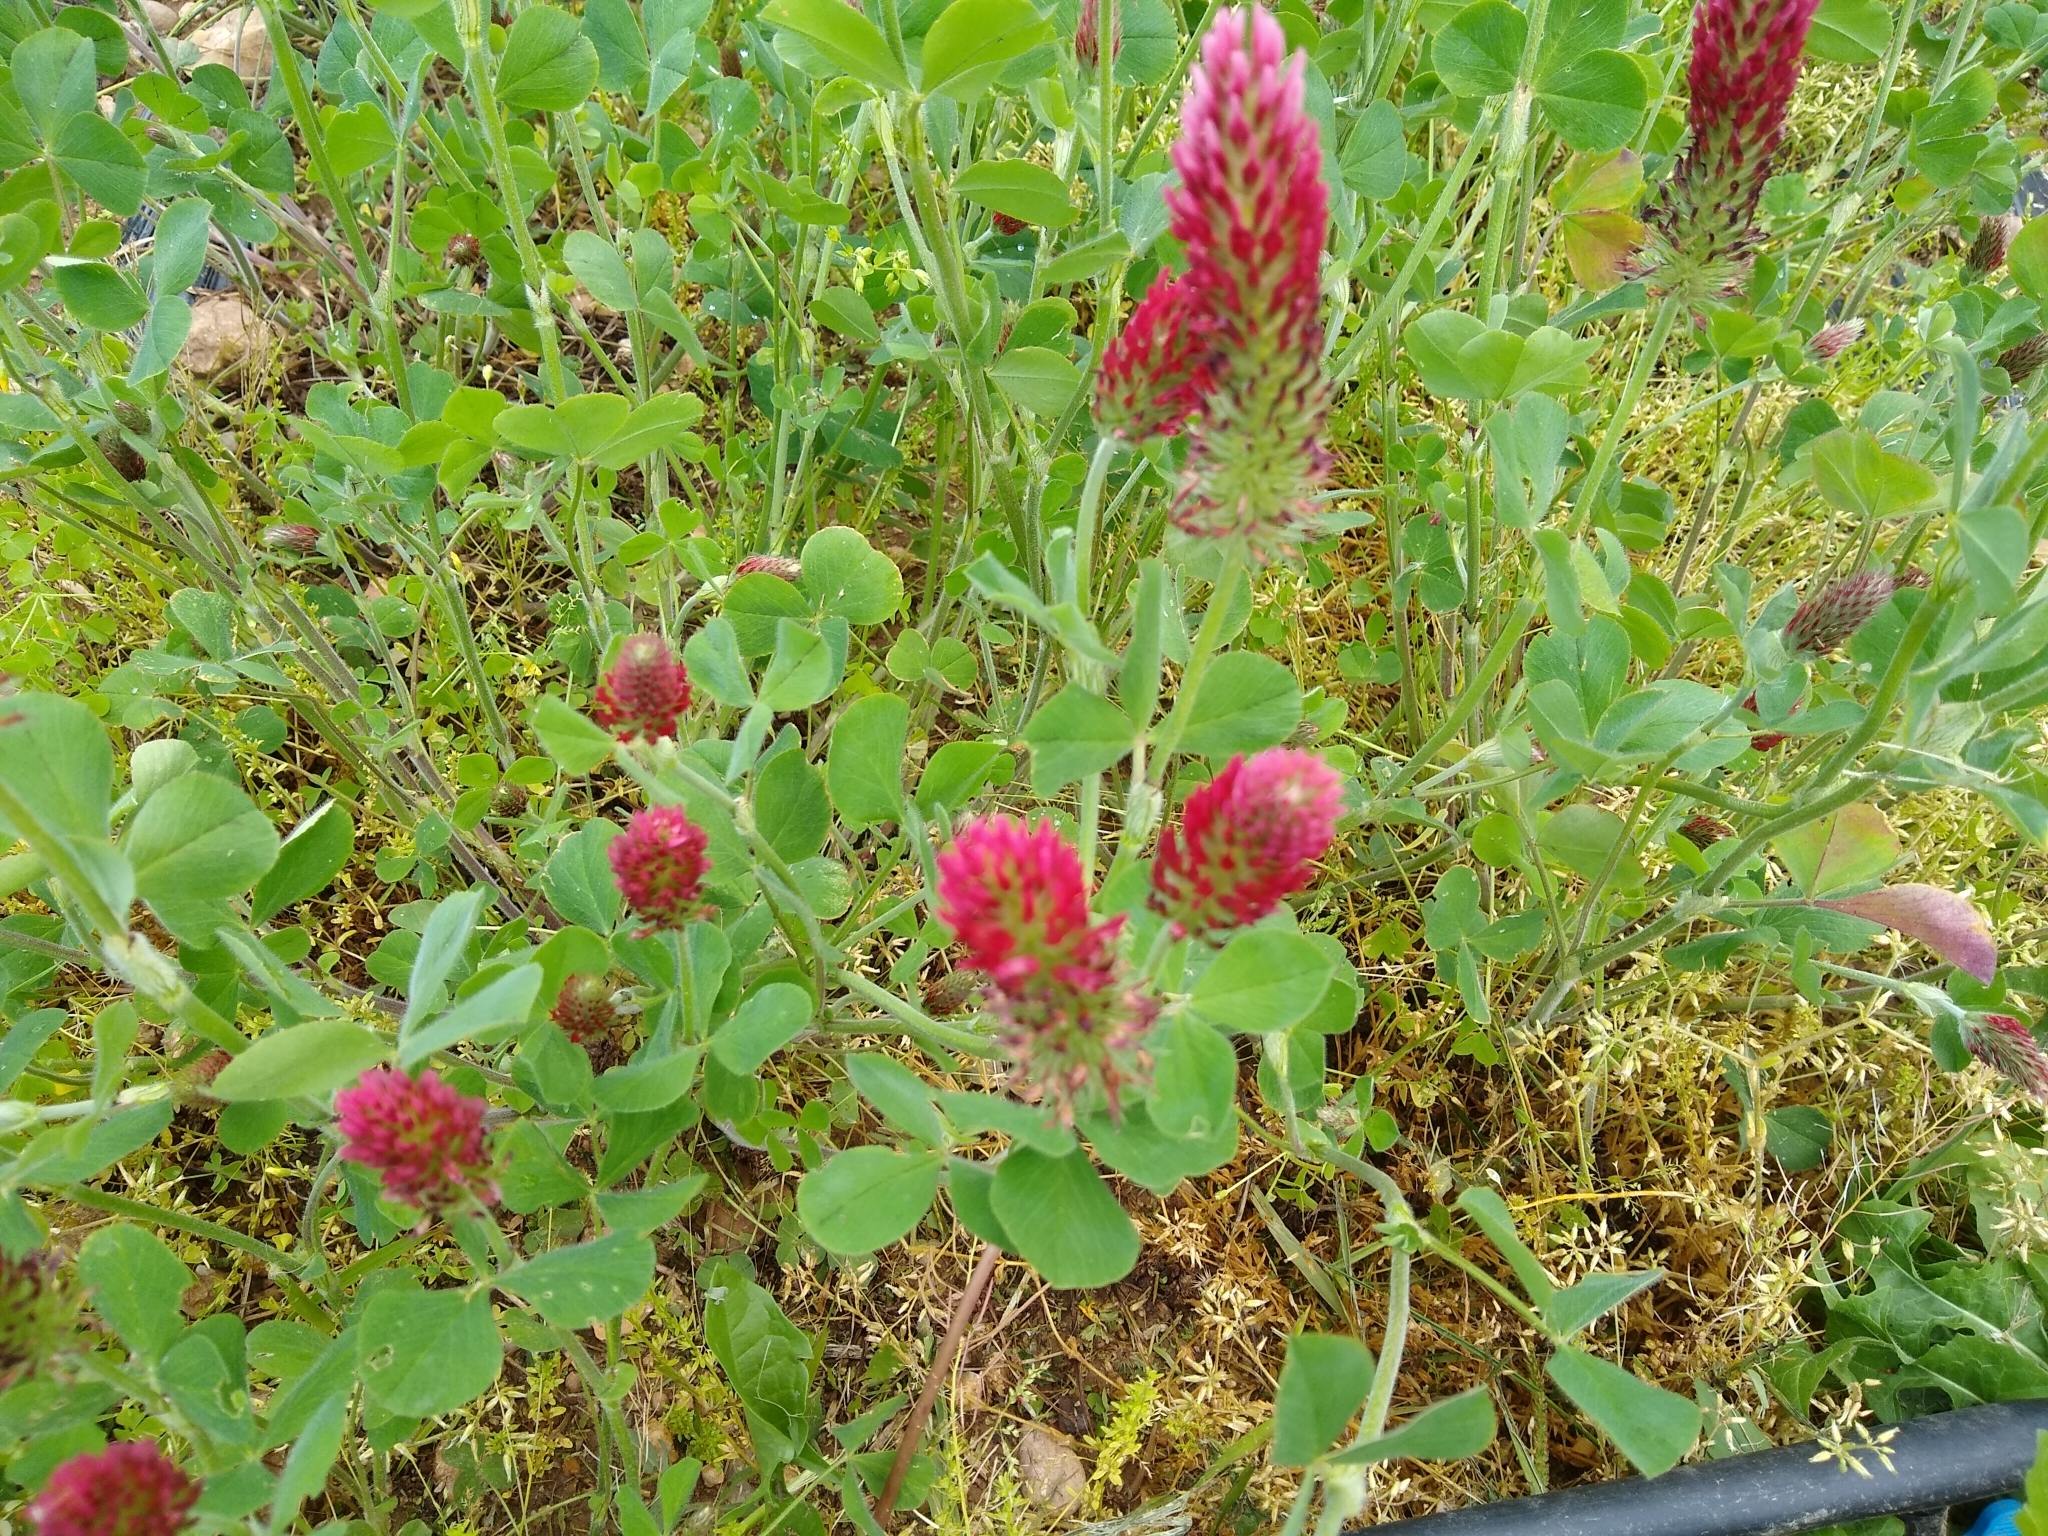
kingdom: Plantae
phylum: Tracheophyta
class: Magnoliopsida
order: Fabales
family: Fabaceae
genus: Trifolium
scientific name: Trifolium incarnatum
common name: Crimson clover
